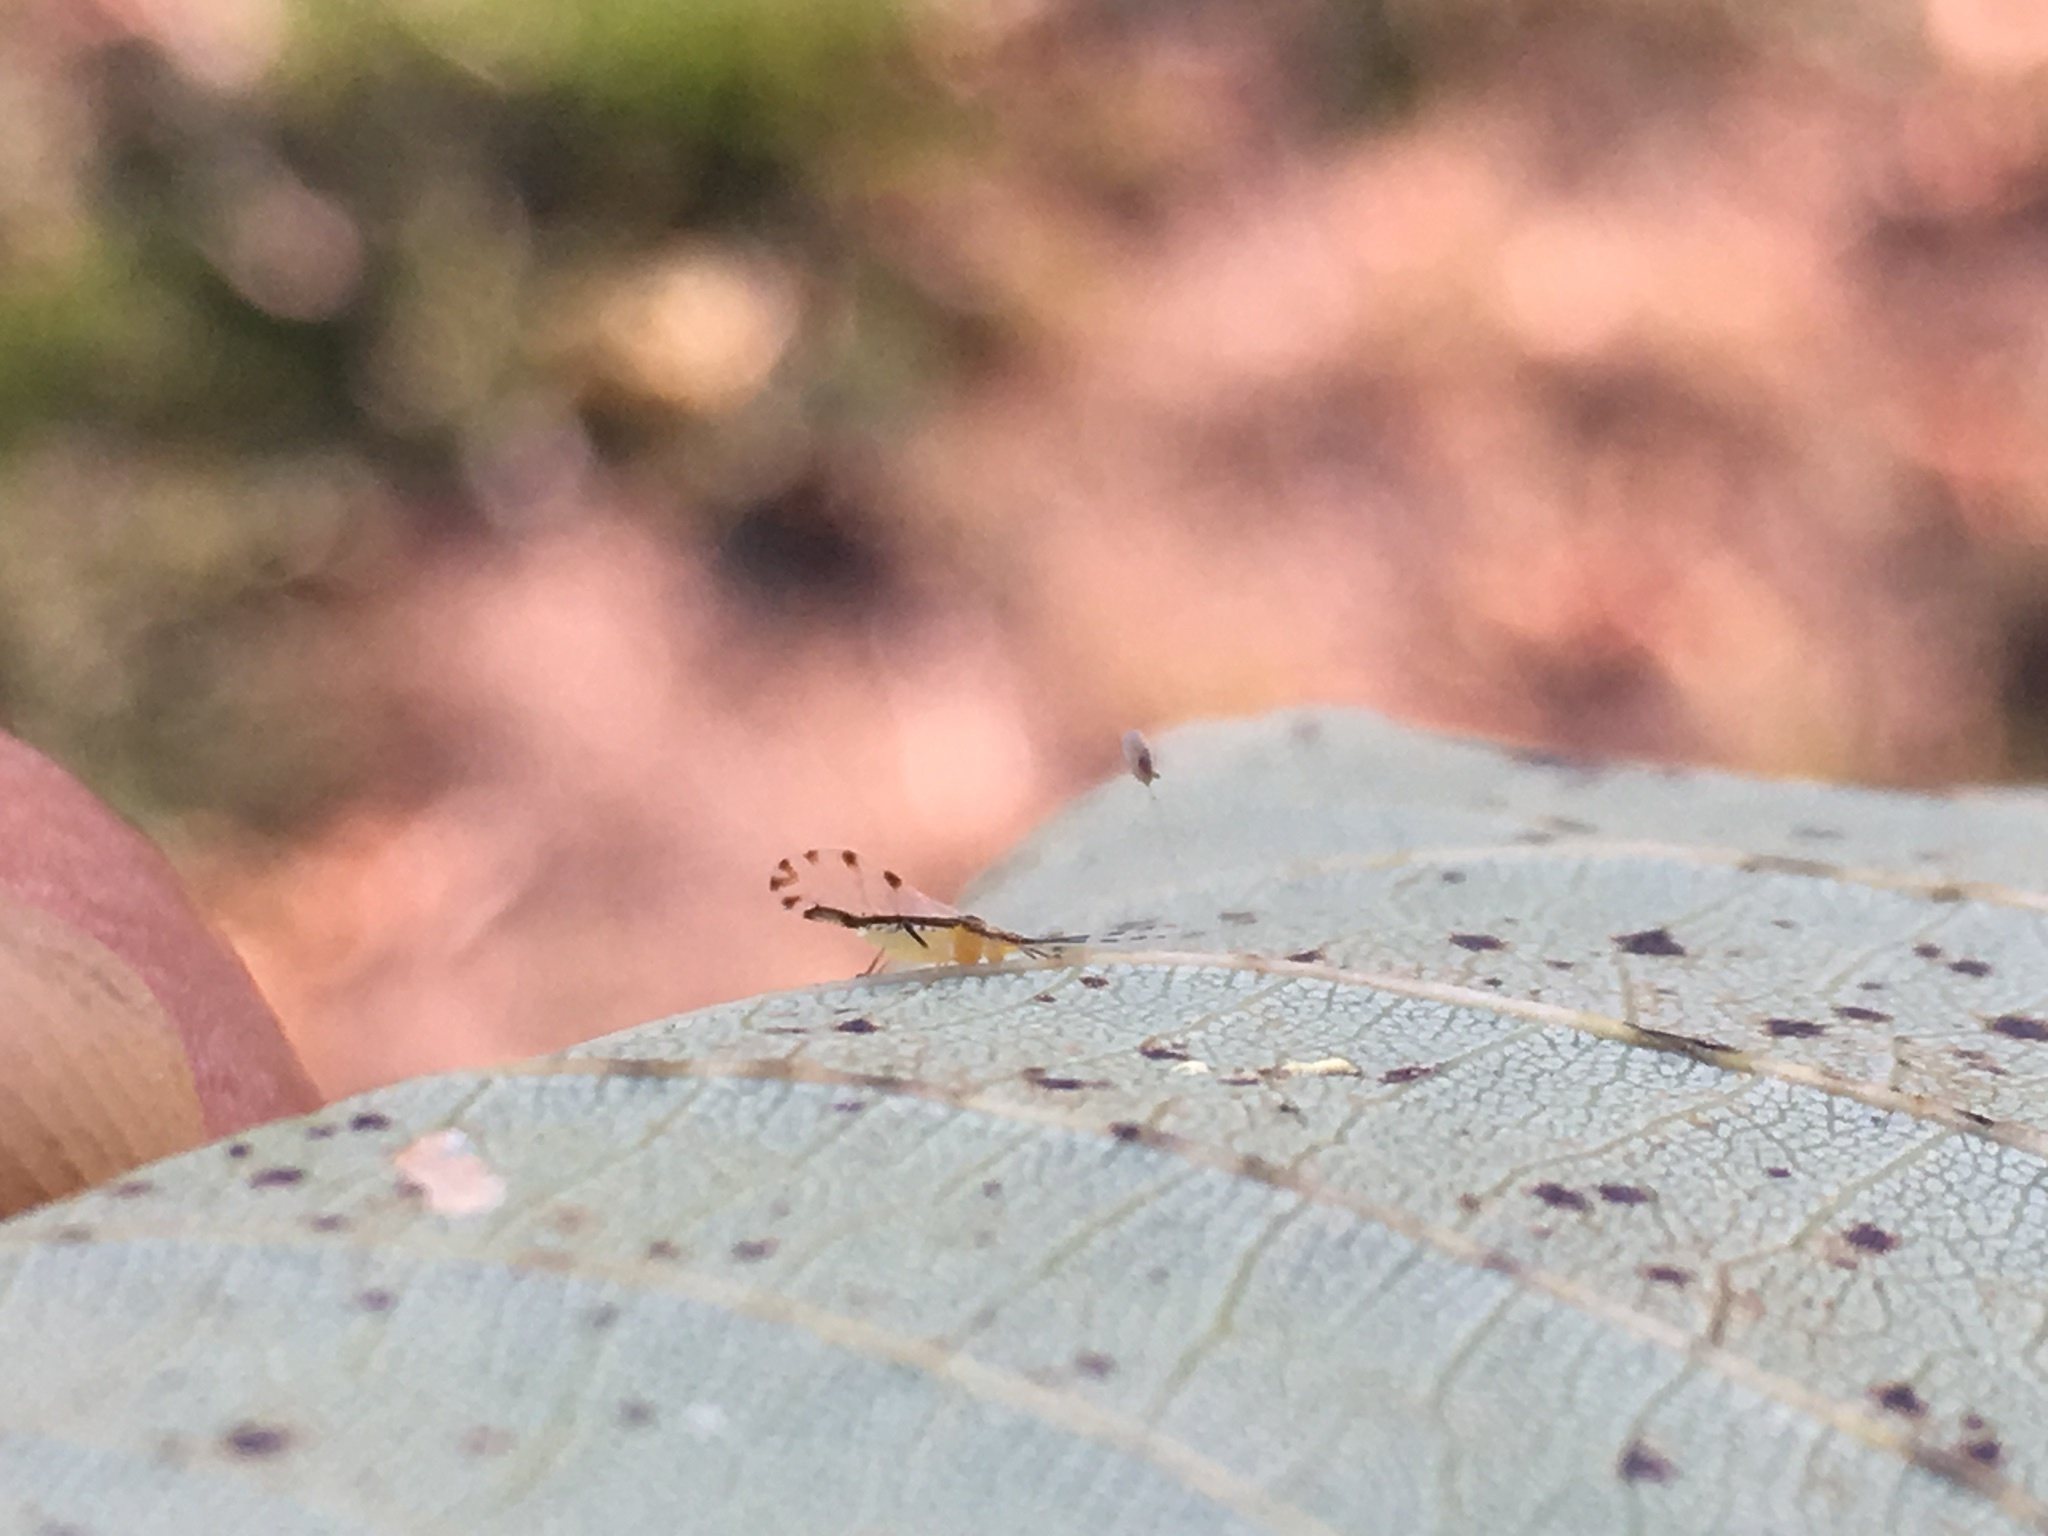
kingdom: Animalia
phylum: Arthropoda
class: Insecta
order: Hemiptera
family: Aphididae
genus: Eucallipterus
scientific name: Eucallipterus tiliae
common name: Aphid
